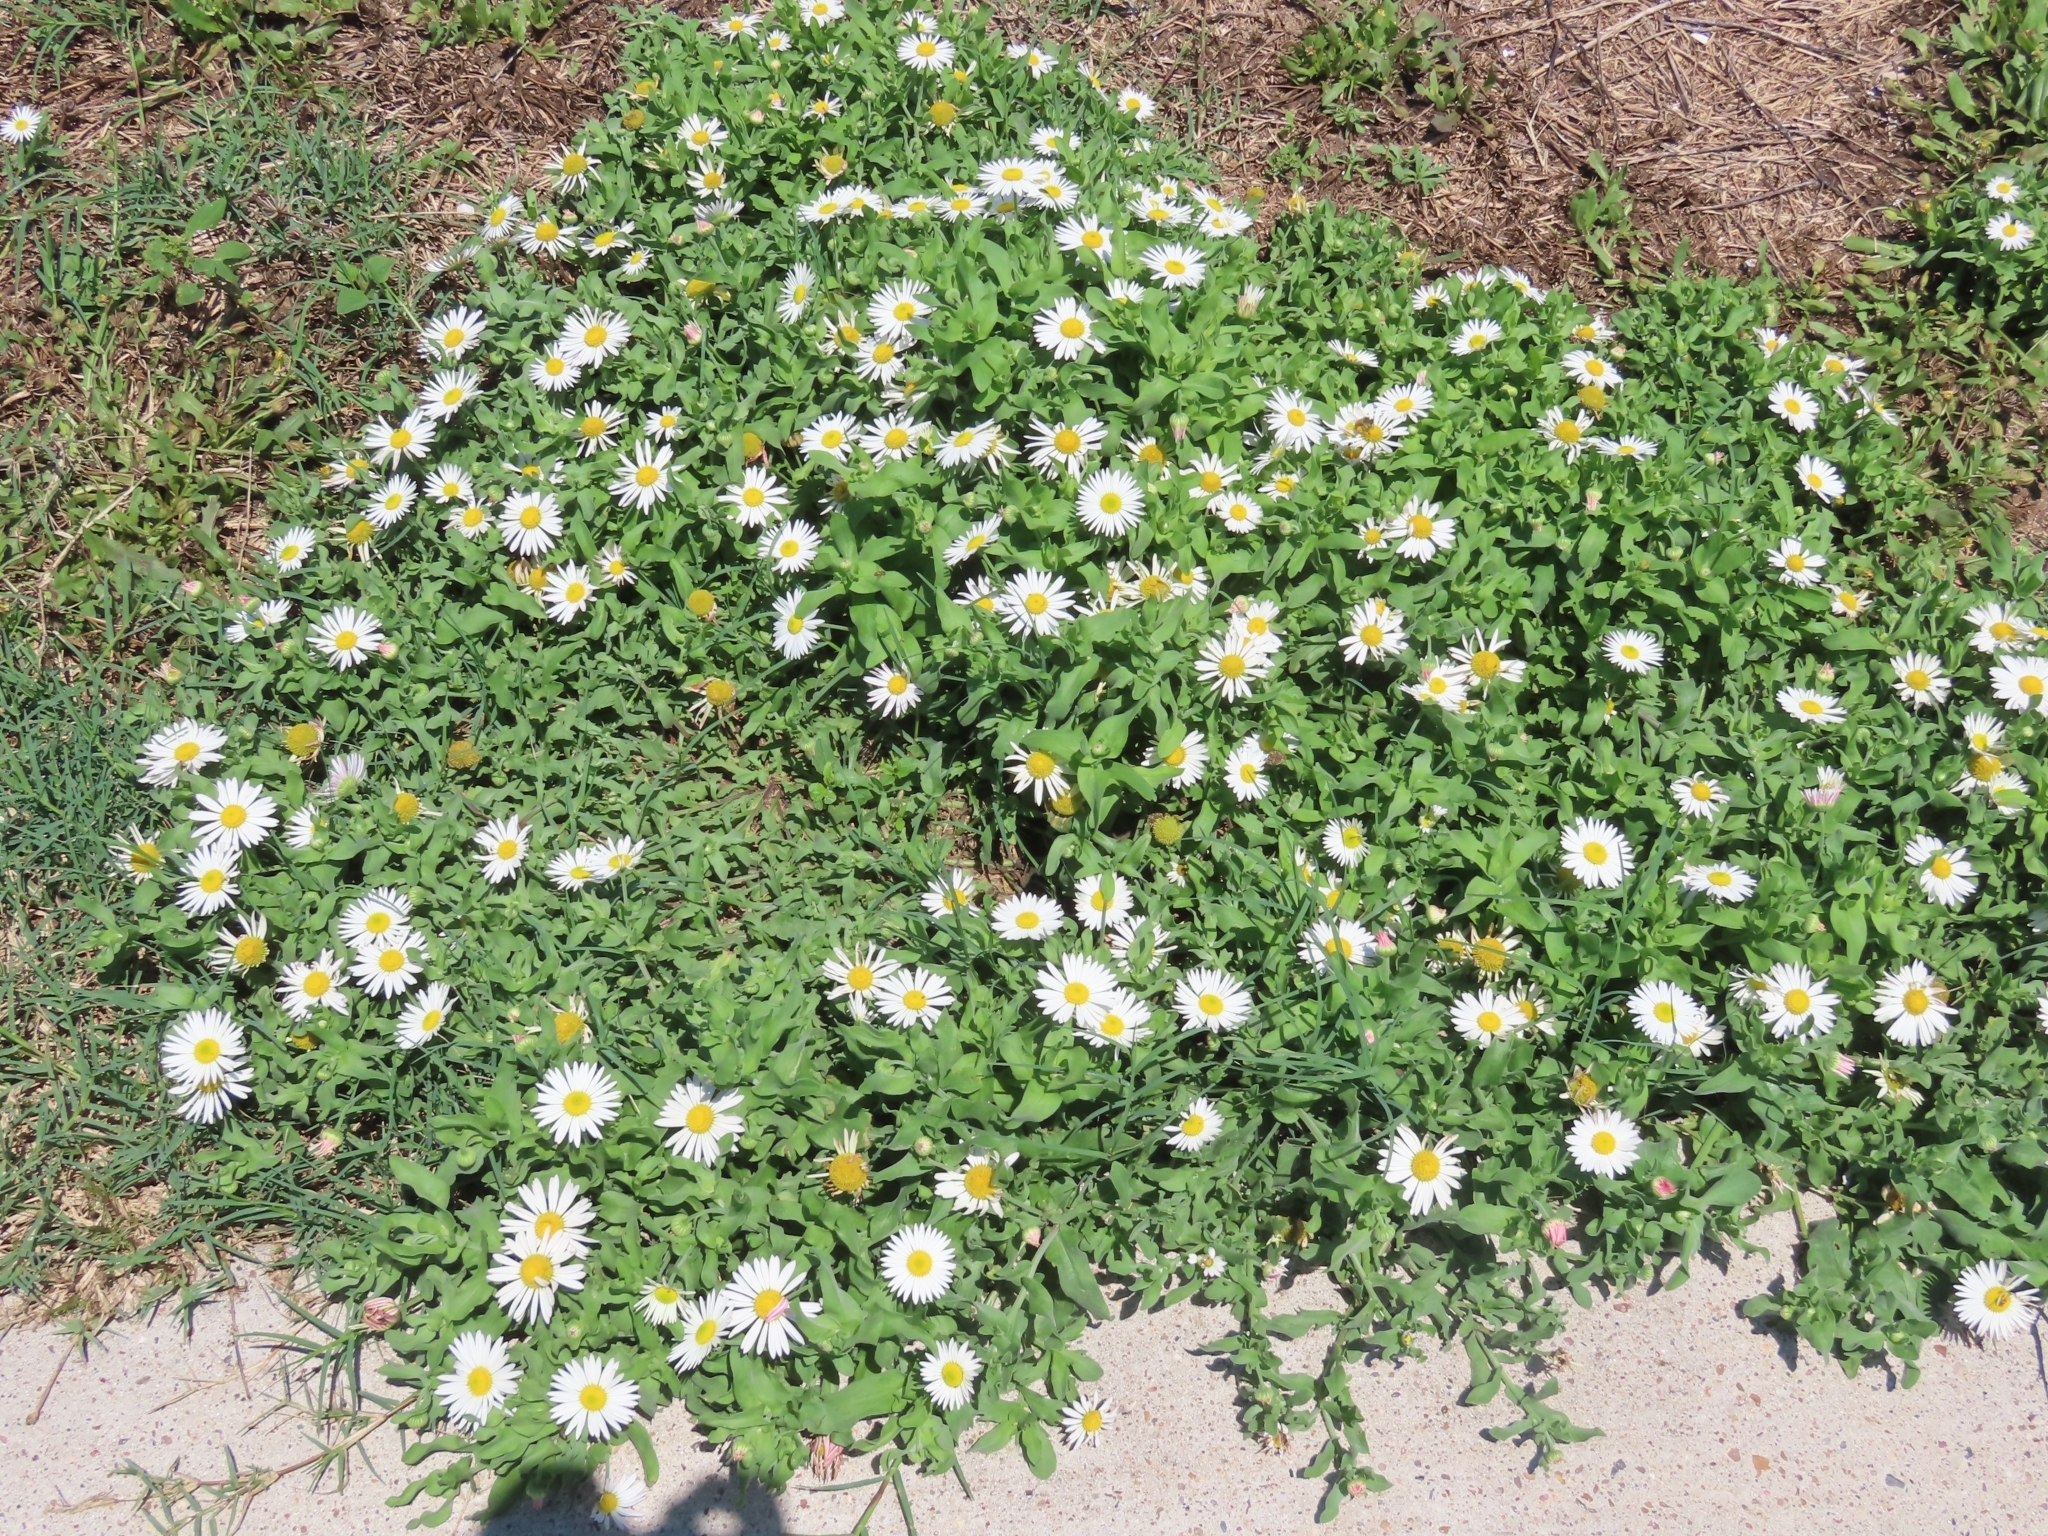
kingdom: Plantae
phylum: Tracheophyta
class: Magnoliopsida
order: Asterales
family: Asteraceae
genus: Aphanostephus
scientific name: Aphanostephus skirrhobasis
